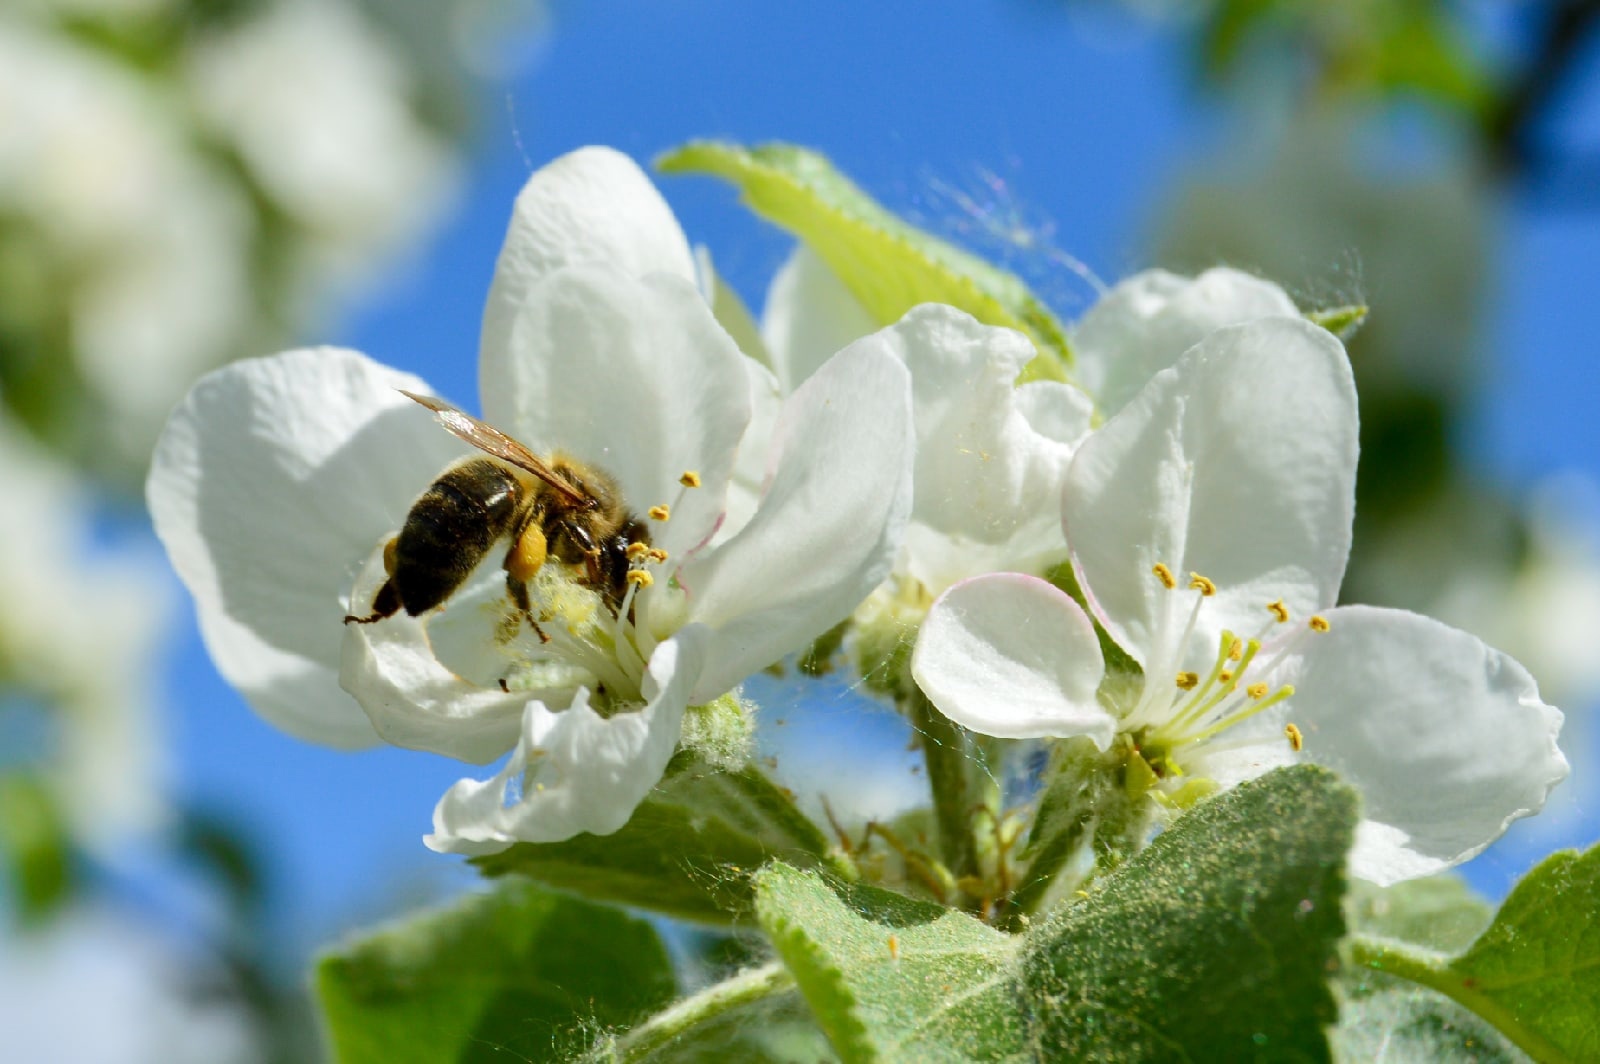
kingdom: Animalia
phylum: Arthropoda
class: Insecta
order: Hymenoptera
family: Apidae
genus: Apis
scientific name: Apis mellifera
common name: Honey bee
